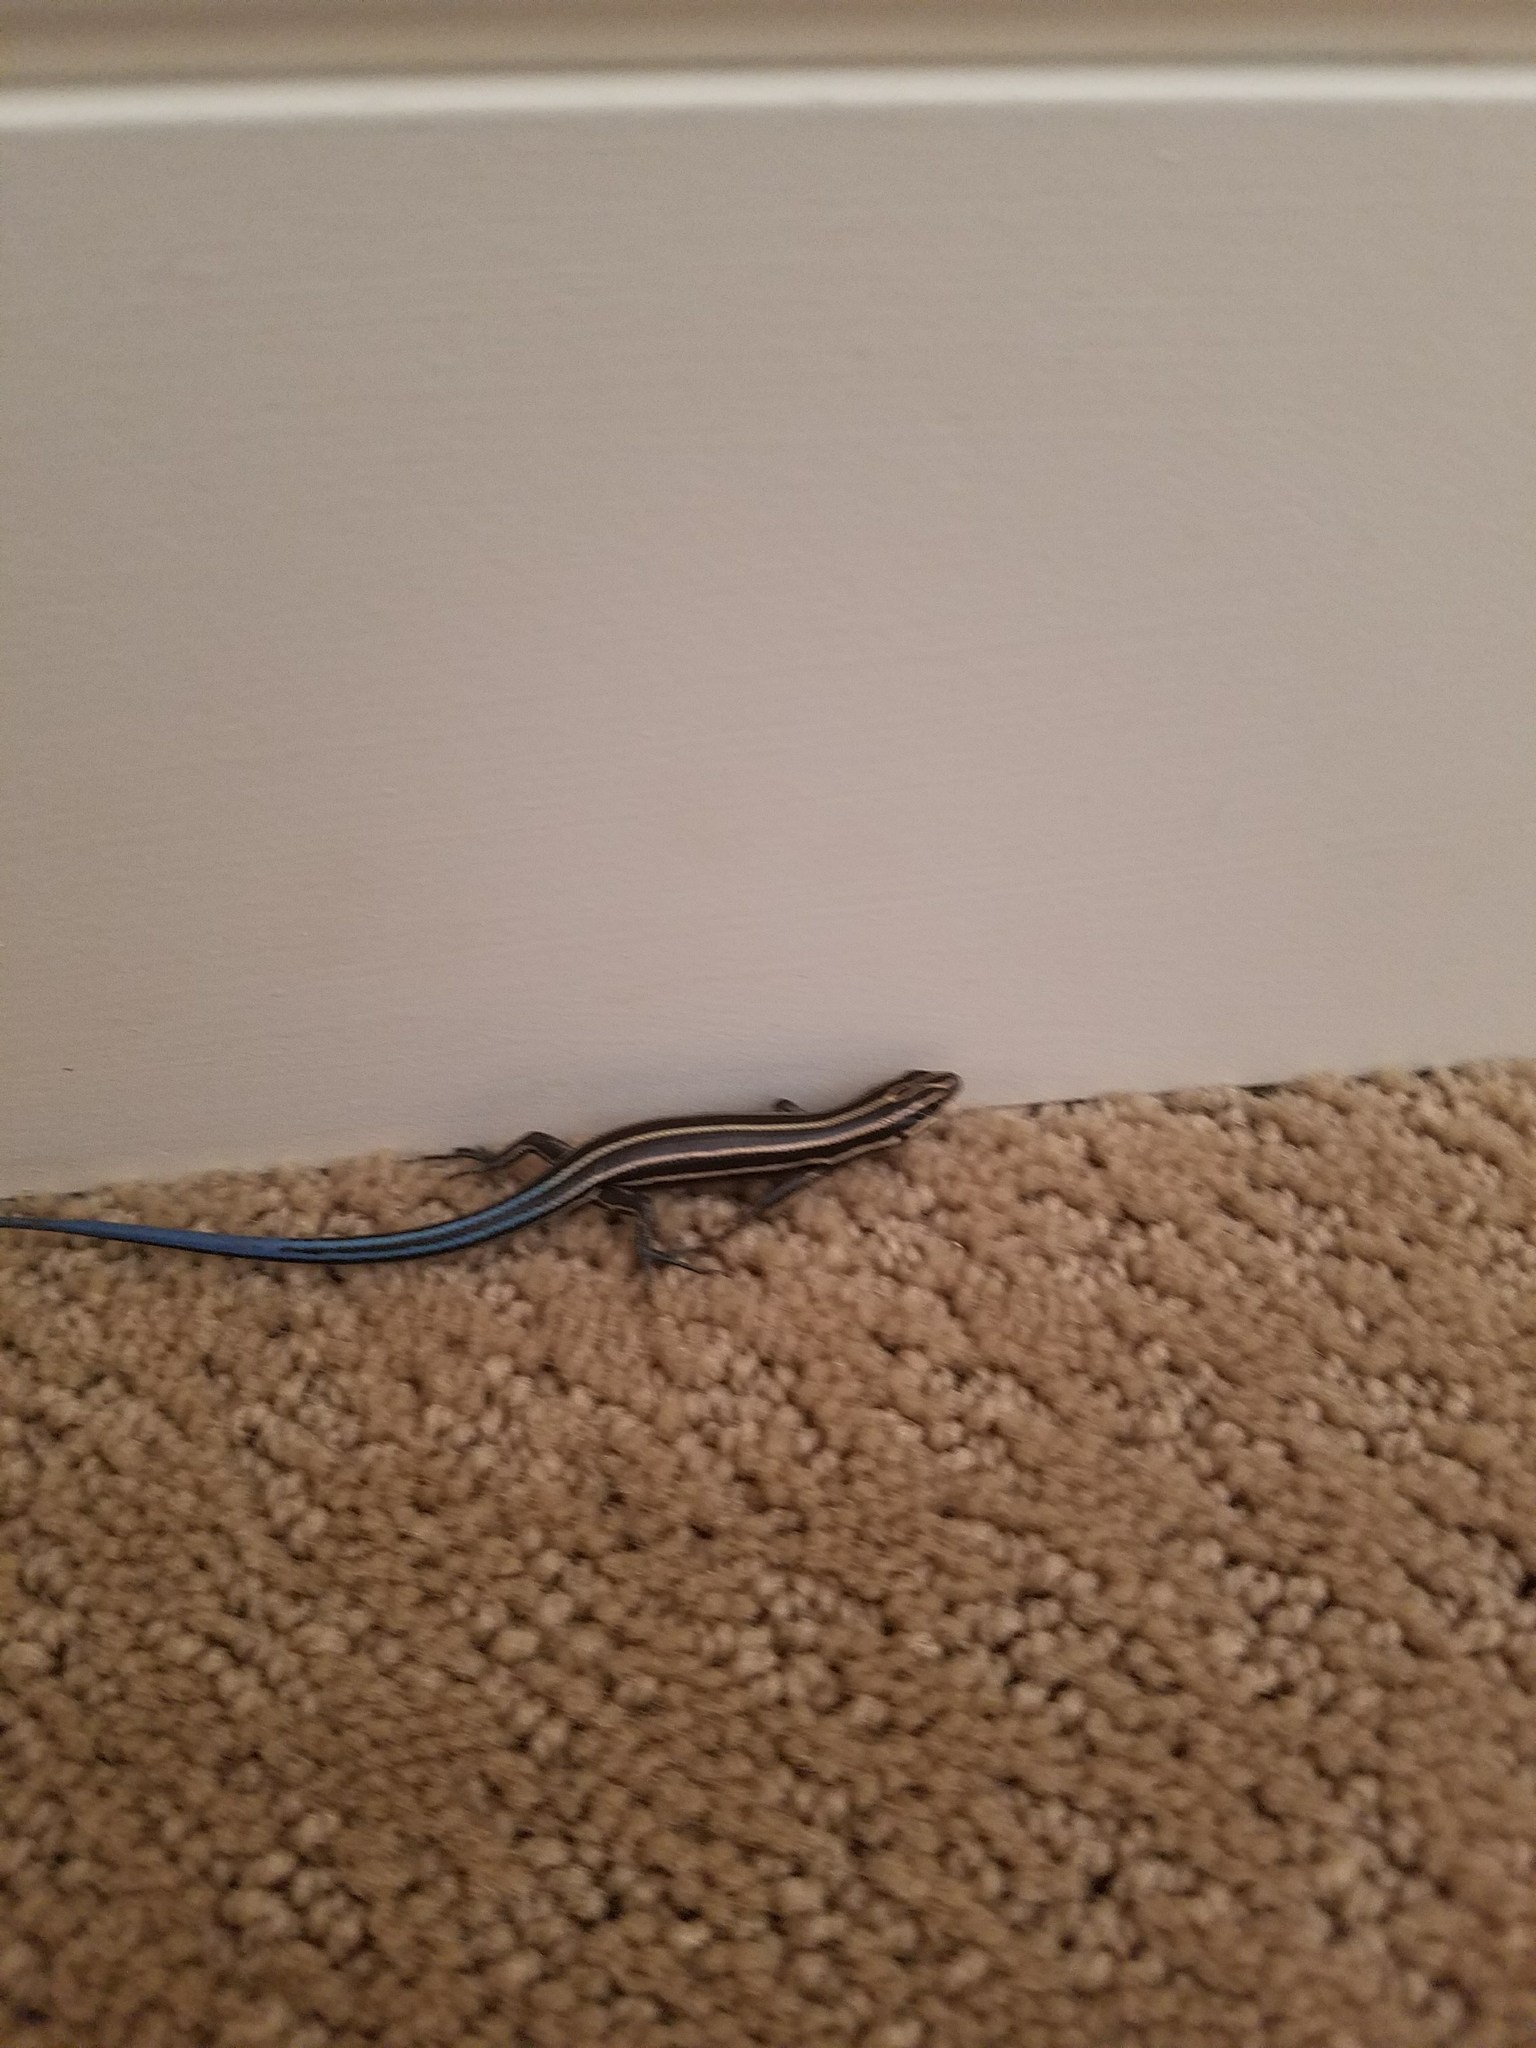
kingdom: Animalia
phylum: Chordata
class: Squamata
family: Scincidae
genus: Plestiodon
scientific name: Plestiodon fasciatus
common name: Five-lined skink
